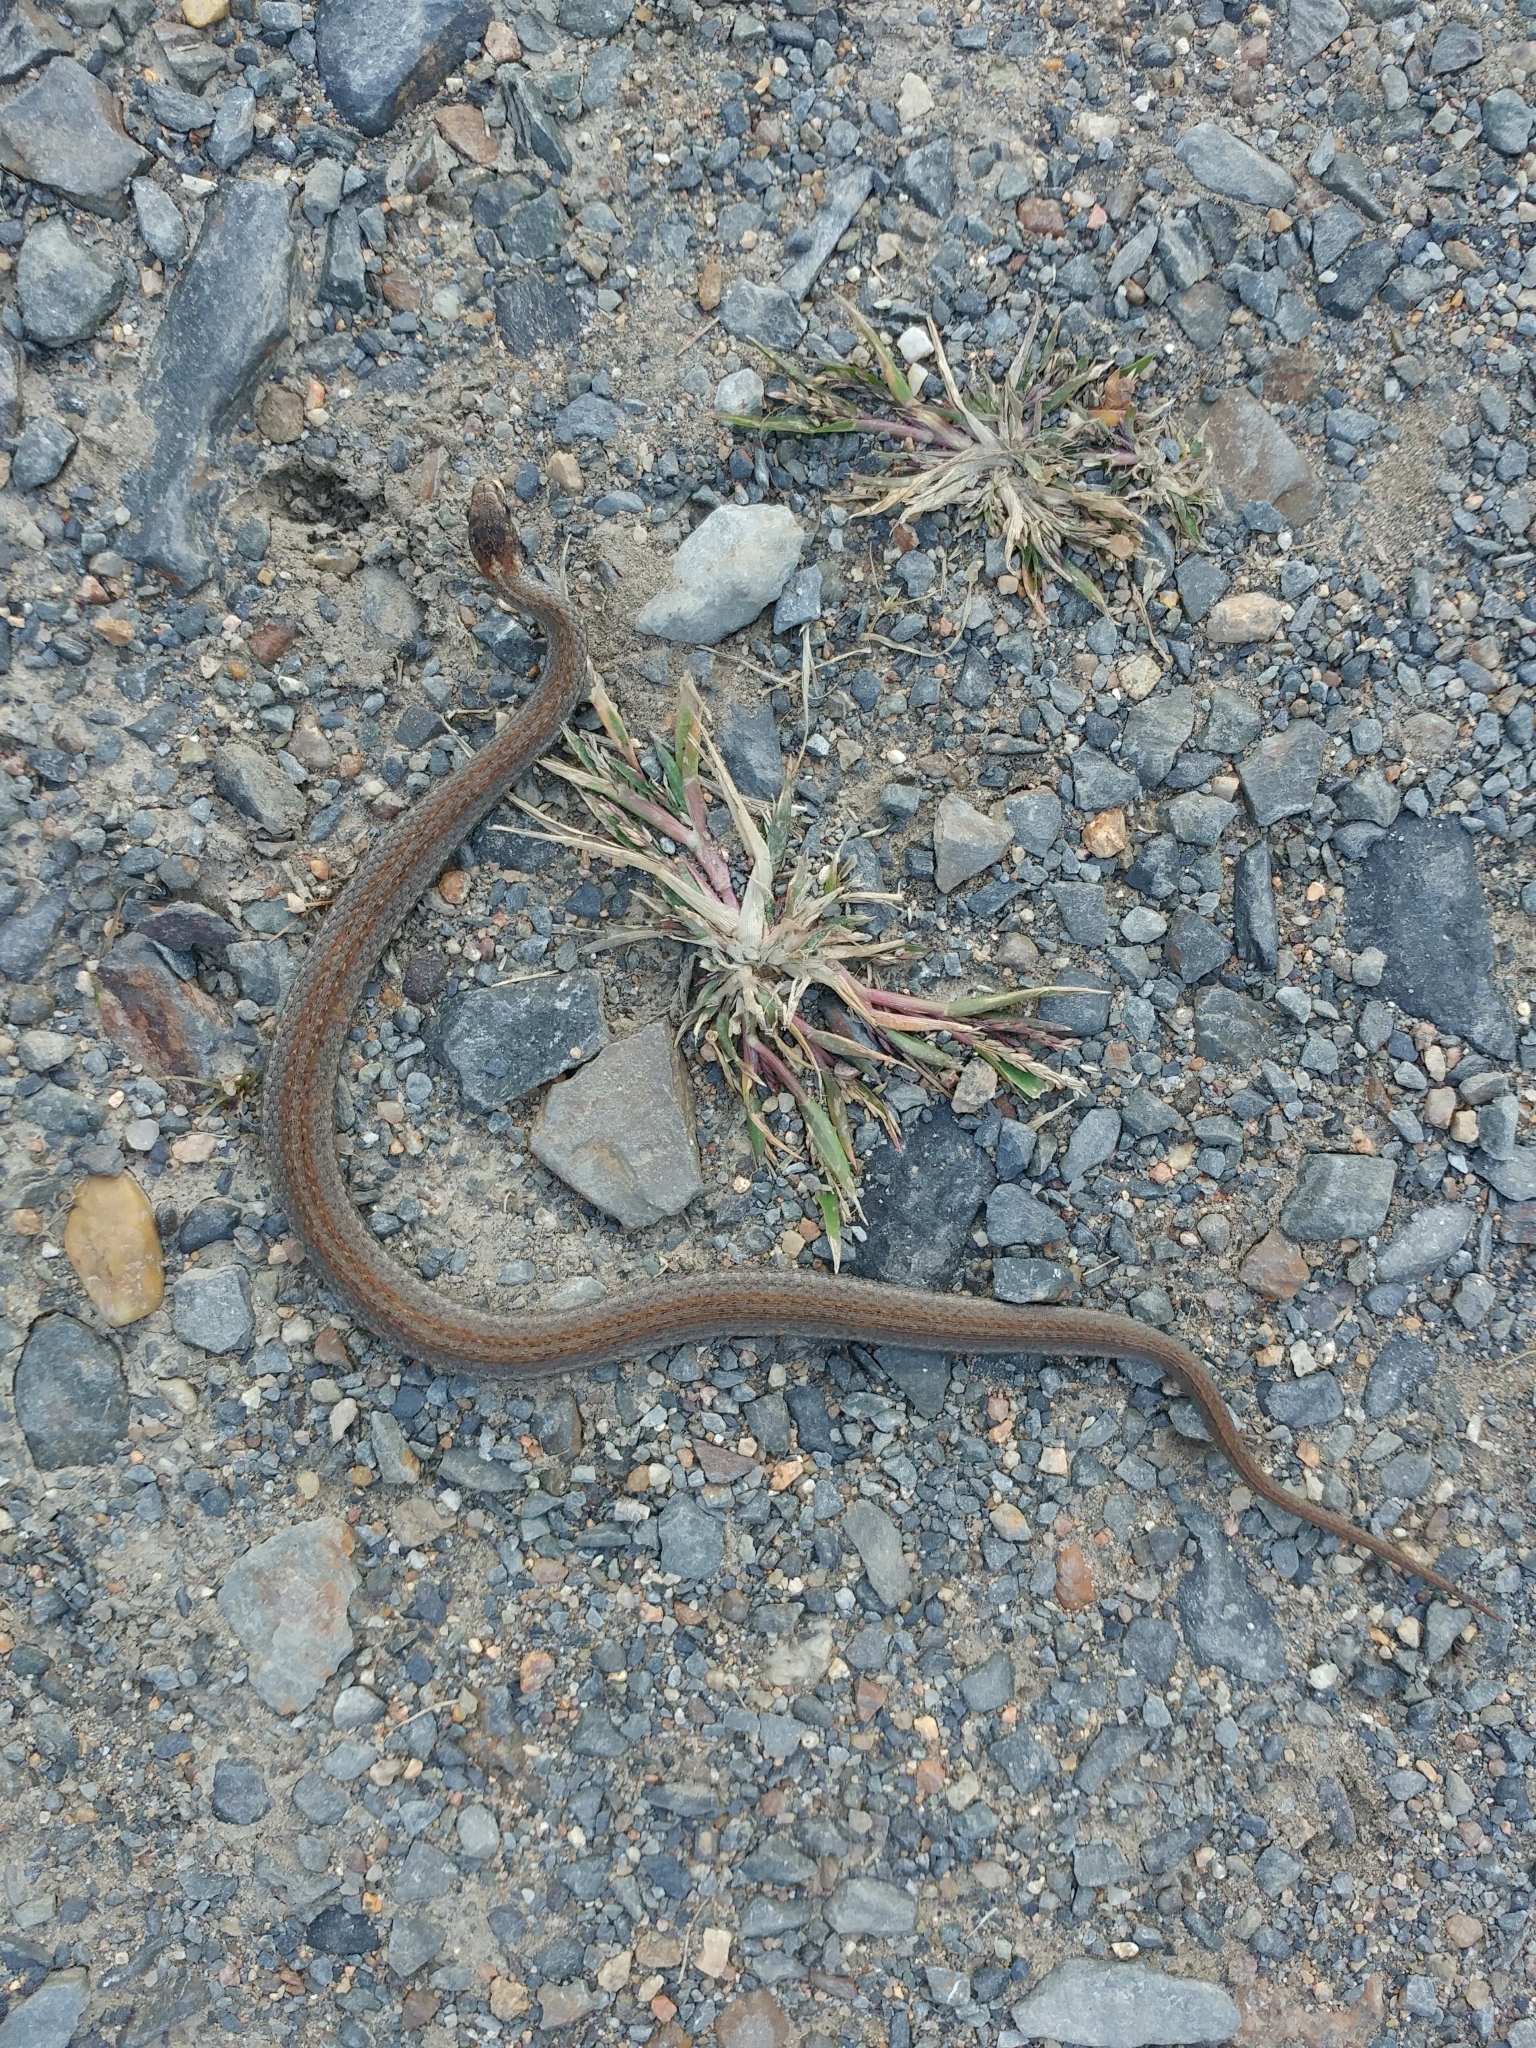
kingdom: Animalia
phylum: Chordata
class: Squamata
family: Colubridae
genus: Storeria
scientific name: Storeria occipitomaculata
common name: Redbelly snake
